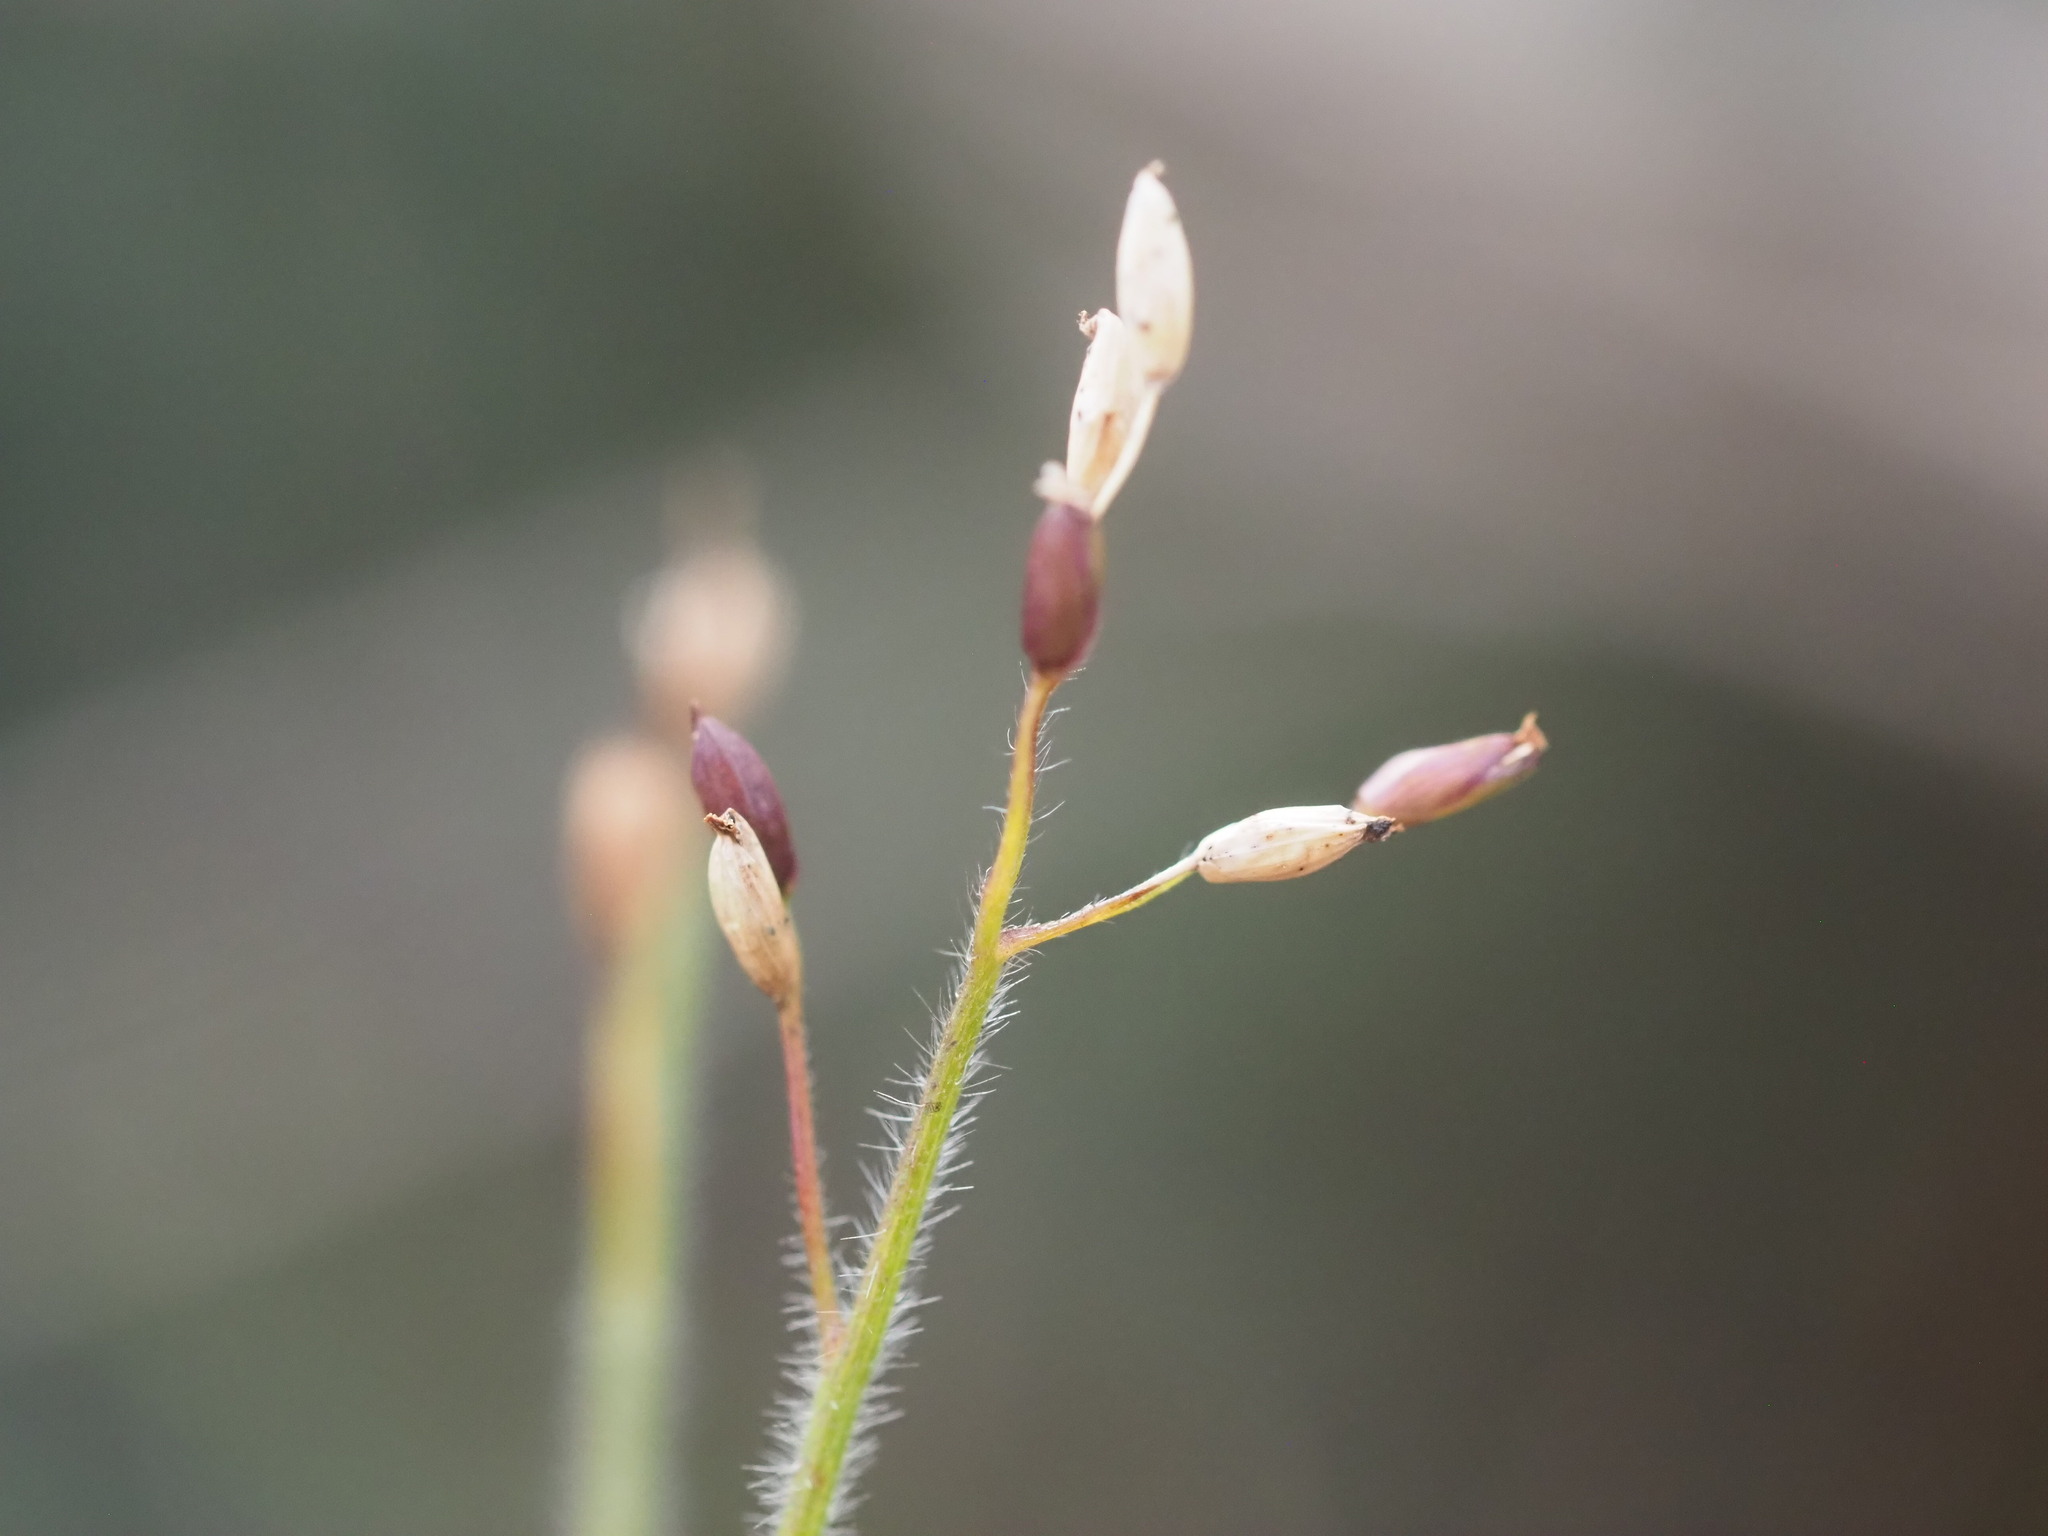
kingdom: Plantae
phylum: Tracheophyta
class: Liliopsida
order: Poales
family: Poaceae
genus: Dichanthelium
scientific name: Dichanthelium cynodon
